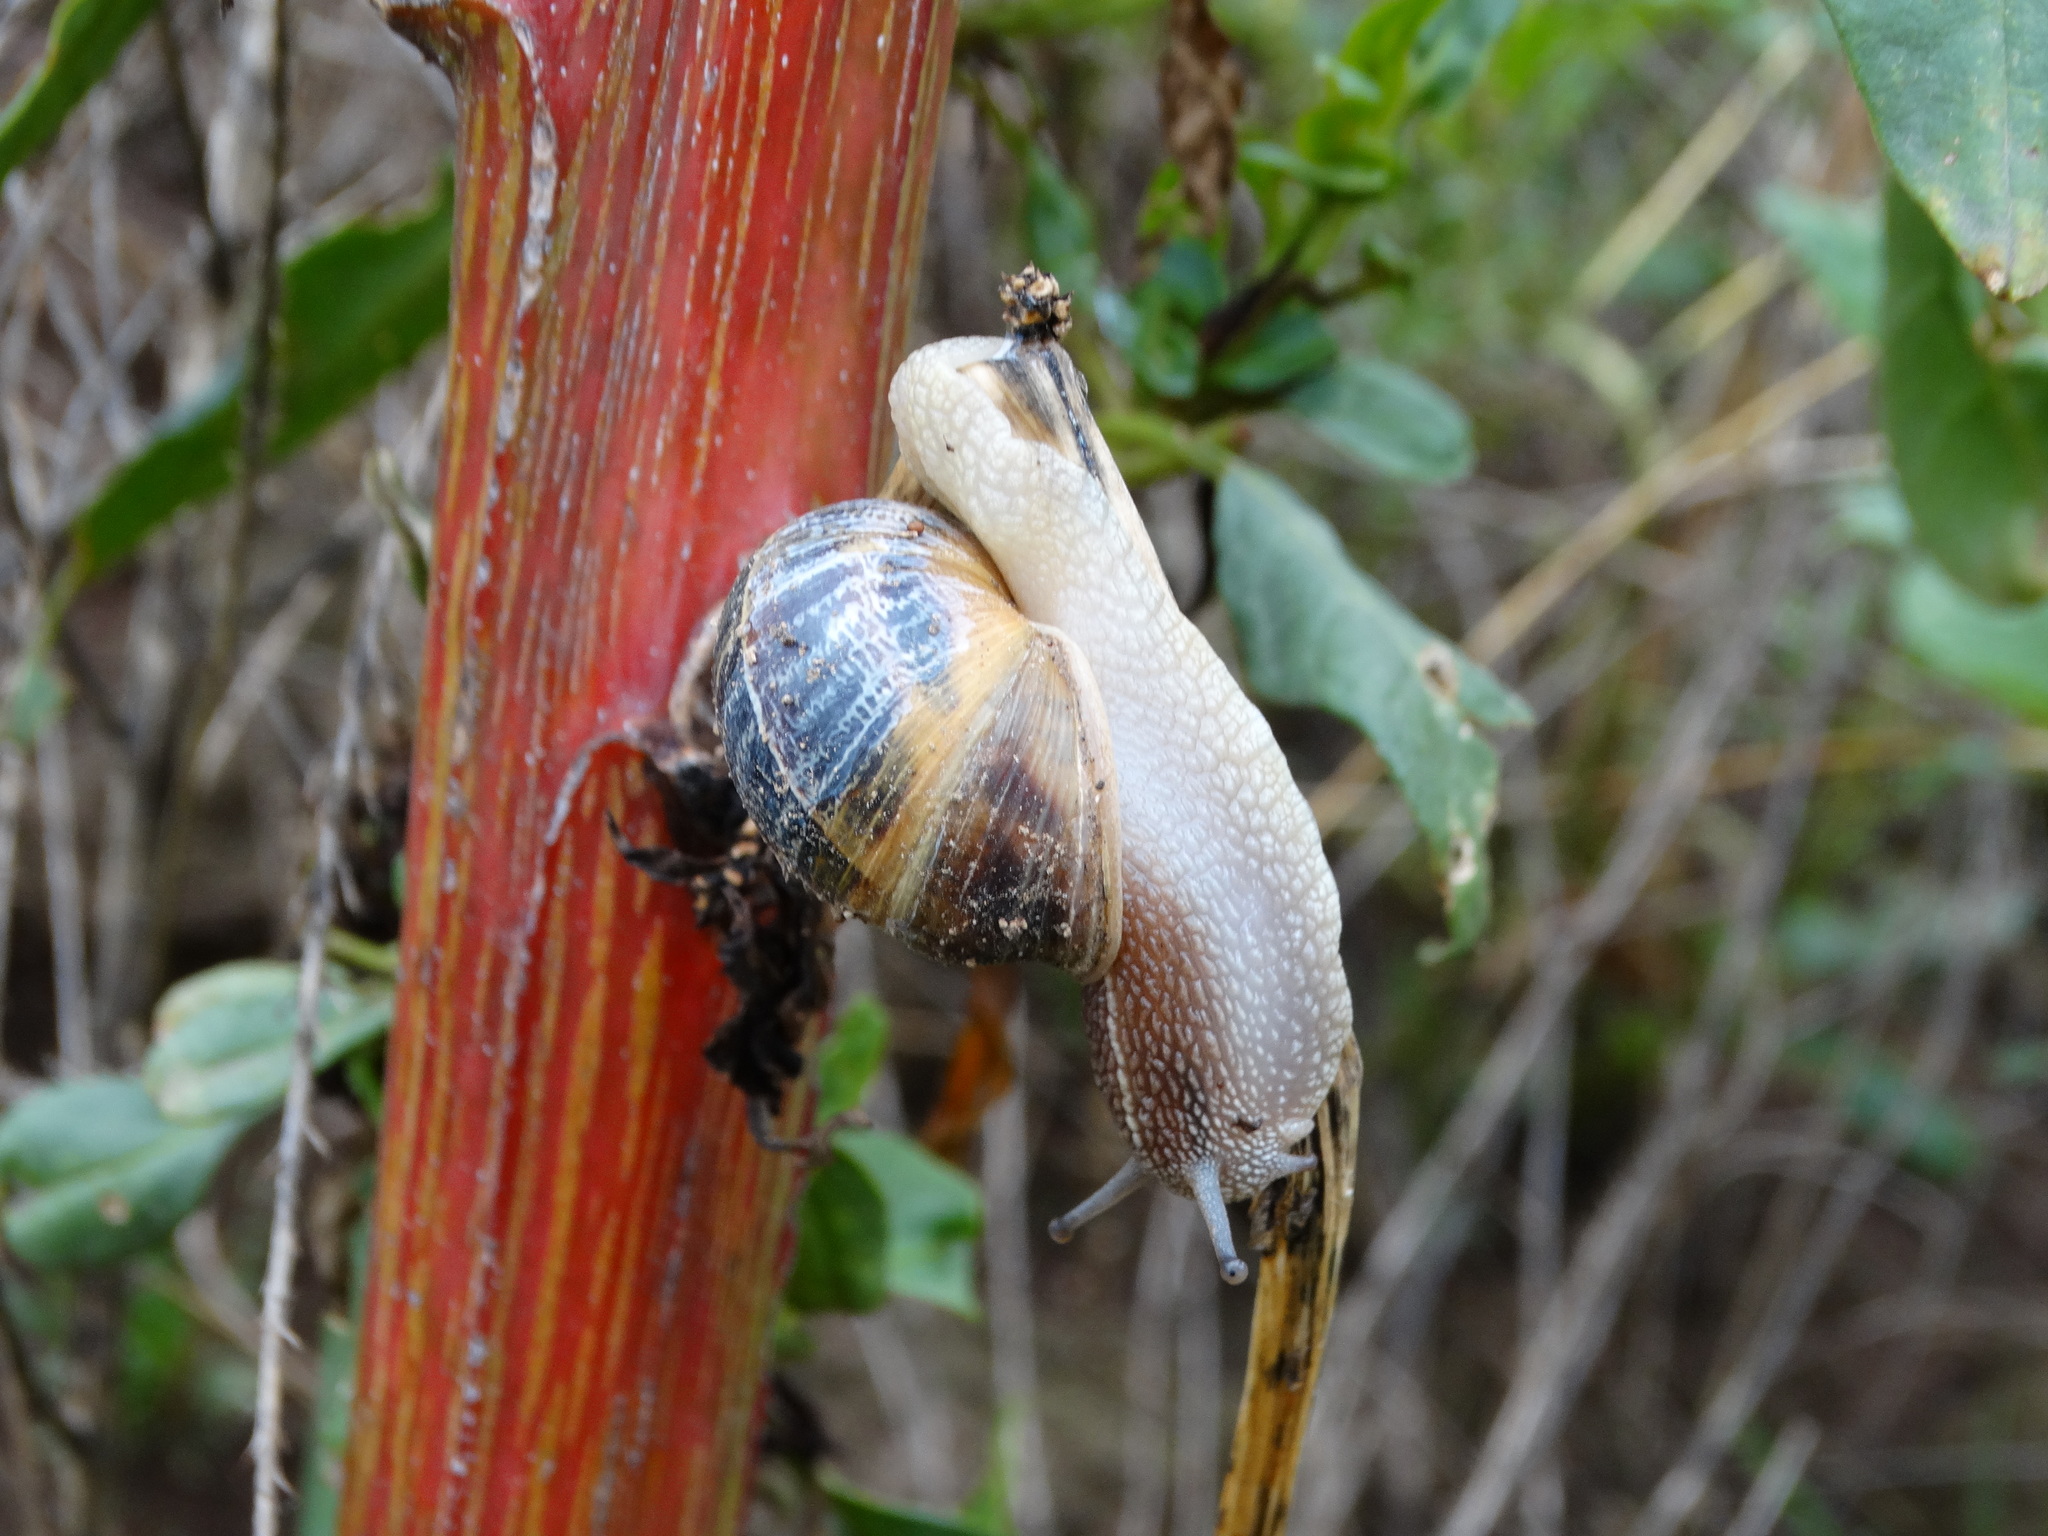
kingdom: Animalia
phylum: Mollusca
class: Gastropoda
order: Stylommatophora
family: Helicidae
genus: Cornu
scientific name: Cornu aspersum
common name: Brown garden snail
